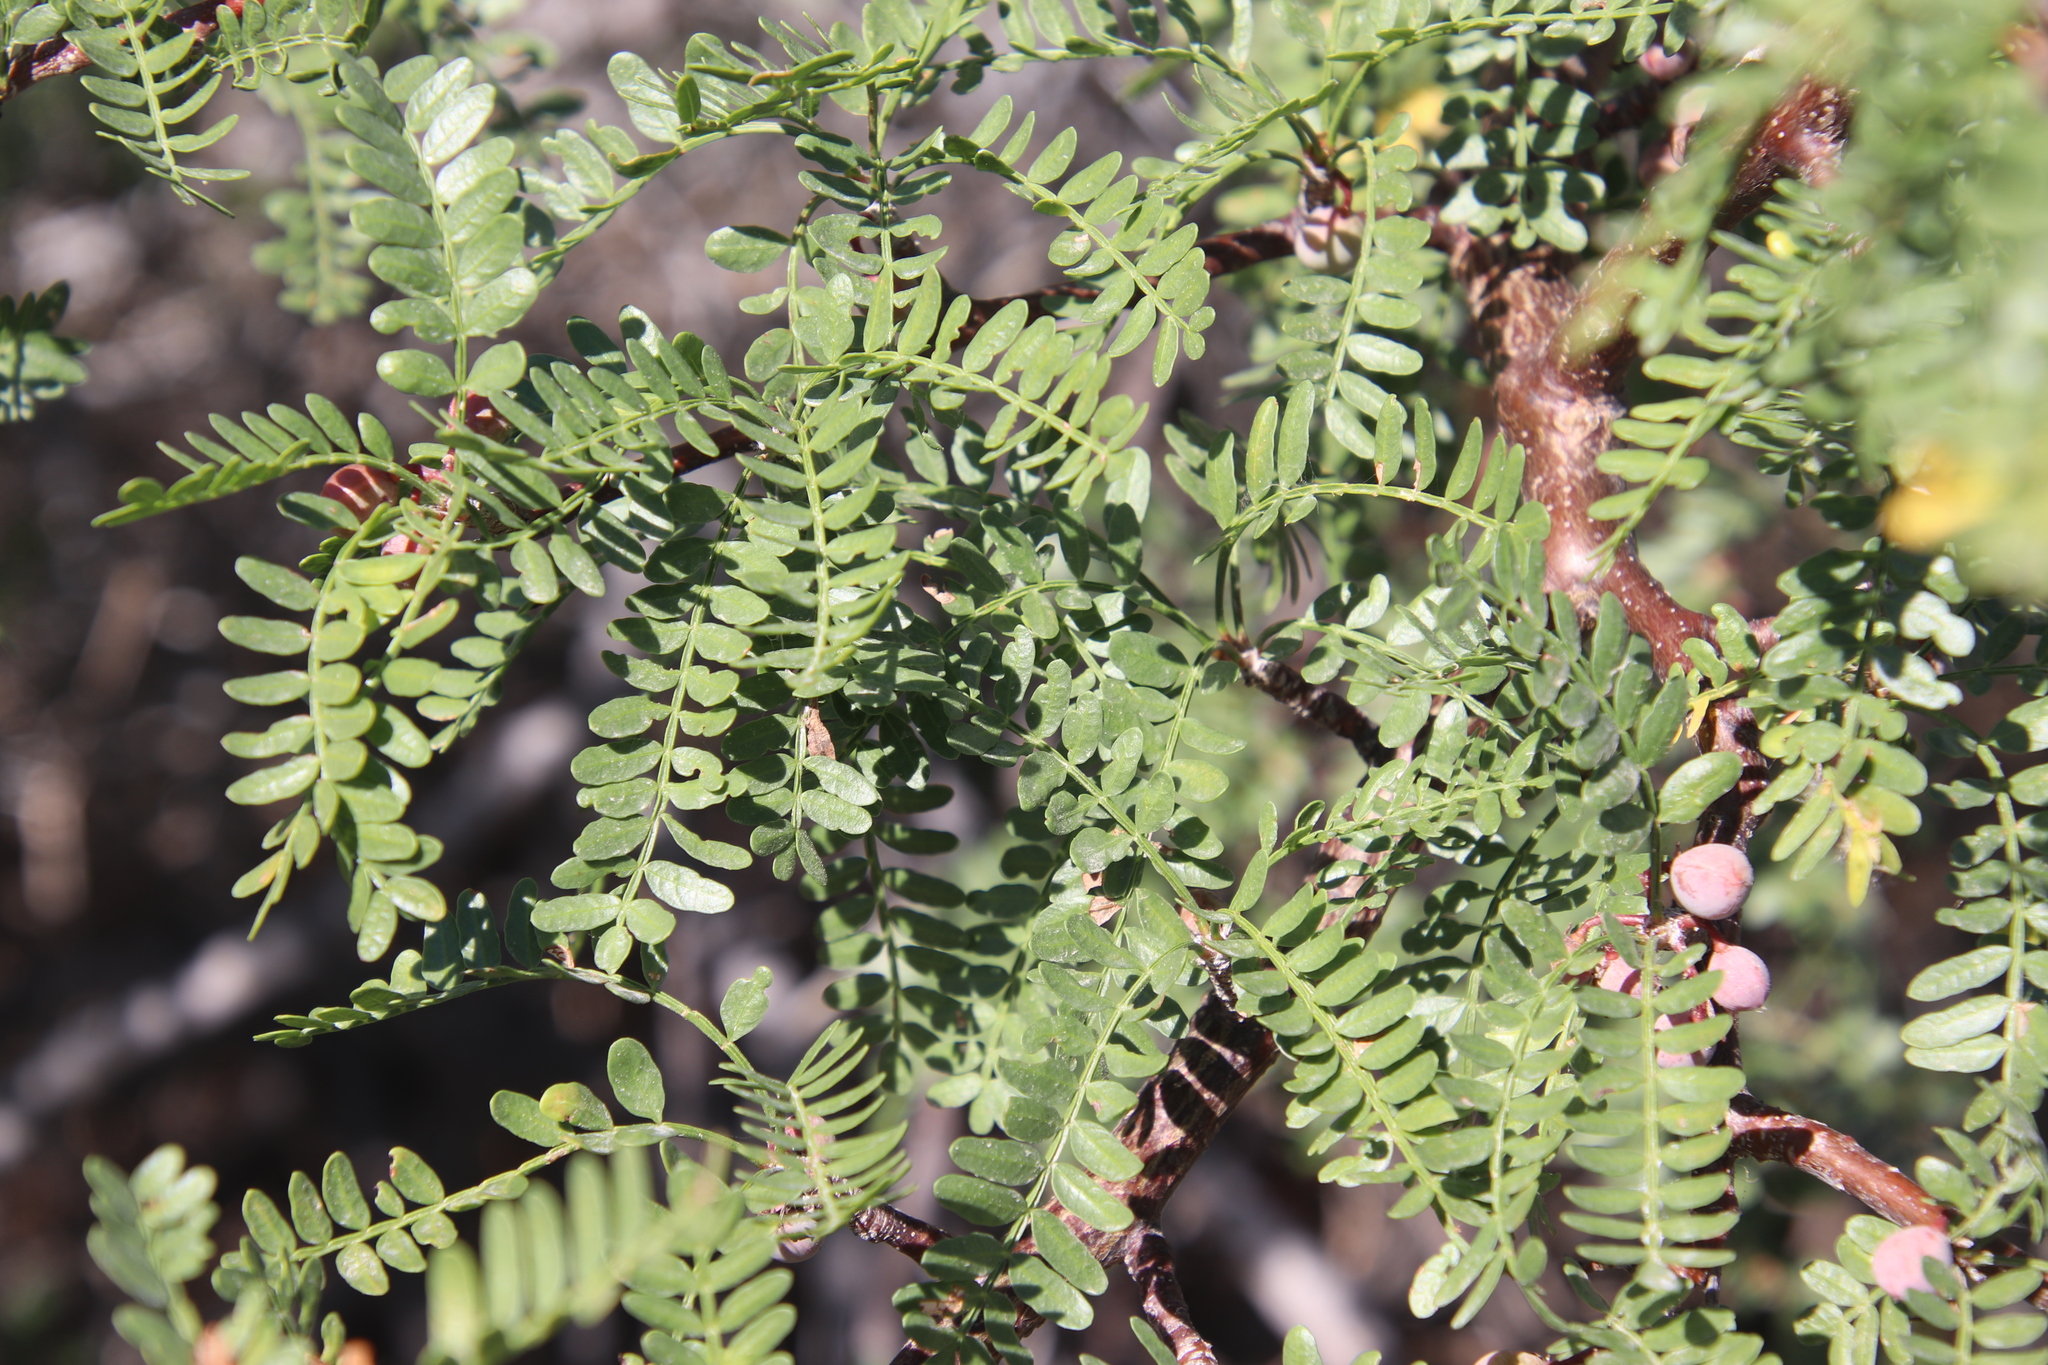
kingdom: Plantae
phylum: Tracheophyta
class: Magnoliopsida
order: Sapindales
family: Burseraceae
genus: Bursera
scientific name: Bursera microphylla
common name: Elephant tree
